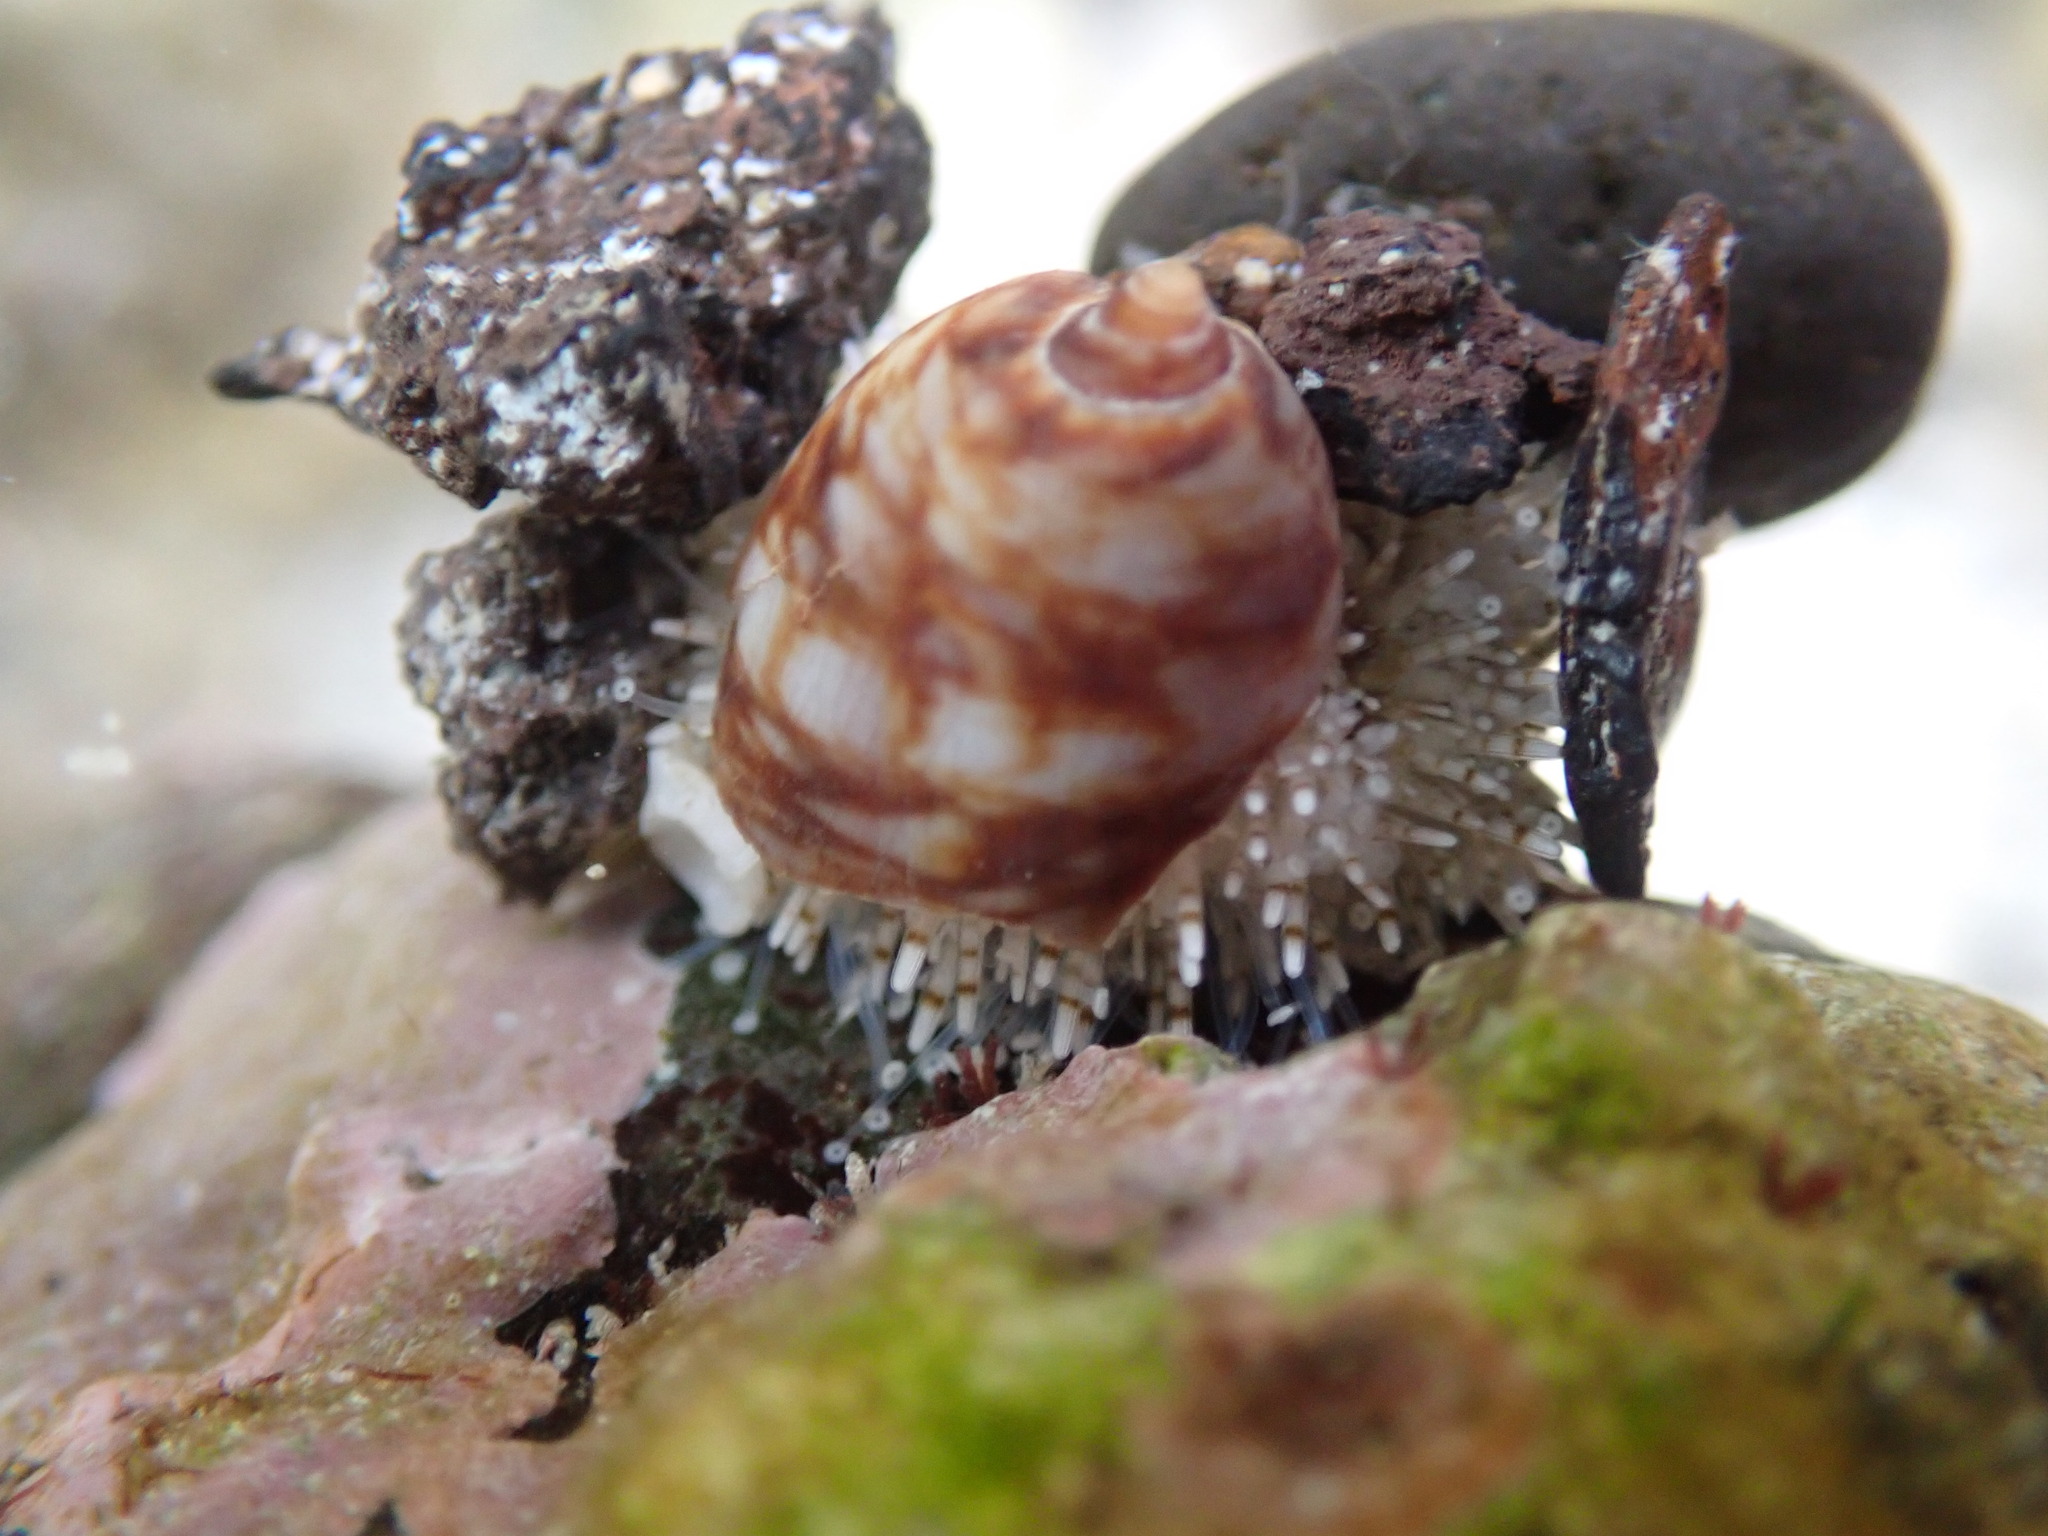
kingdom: Animalia
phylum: Echinodermata
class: Echinoidea
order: Camarodonta
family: Toxopneustidae
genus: Nudechinus
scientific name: Nudechinus verruculatus
